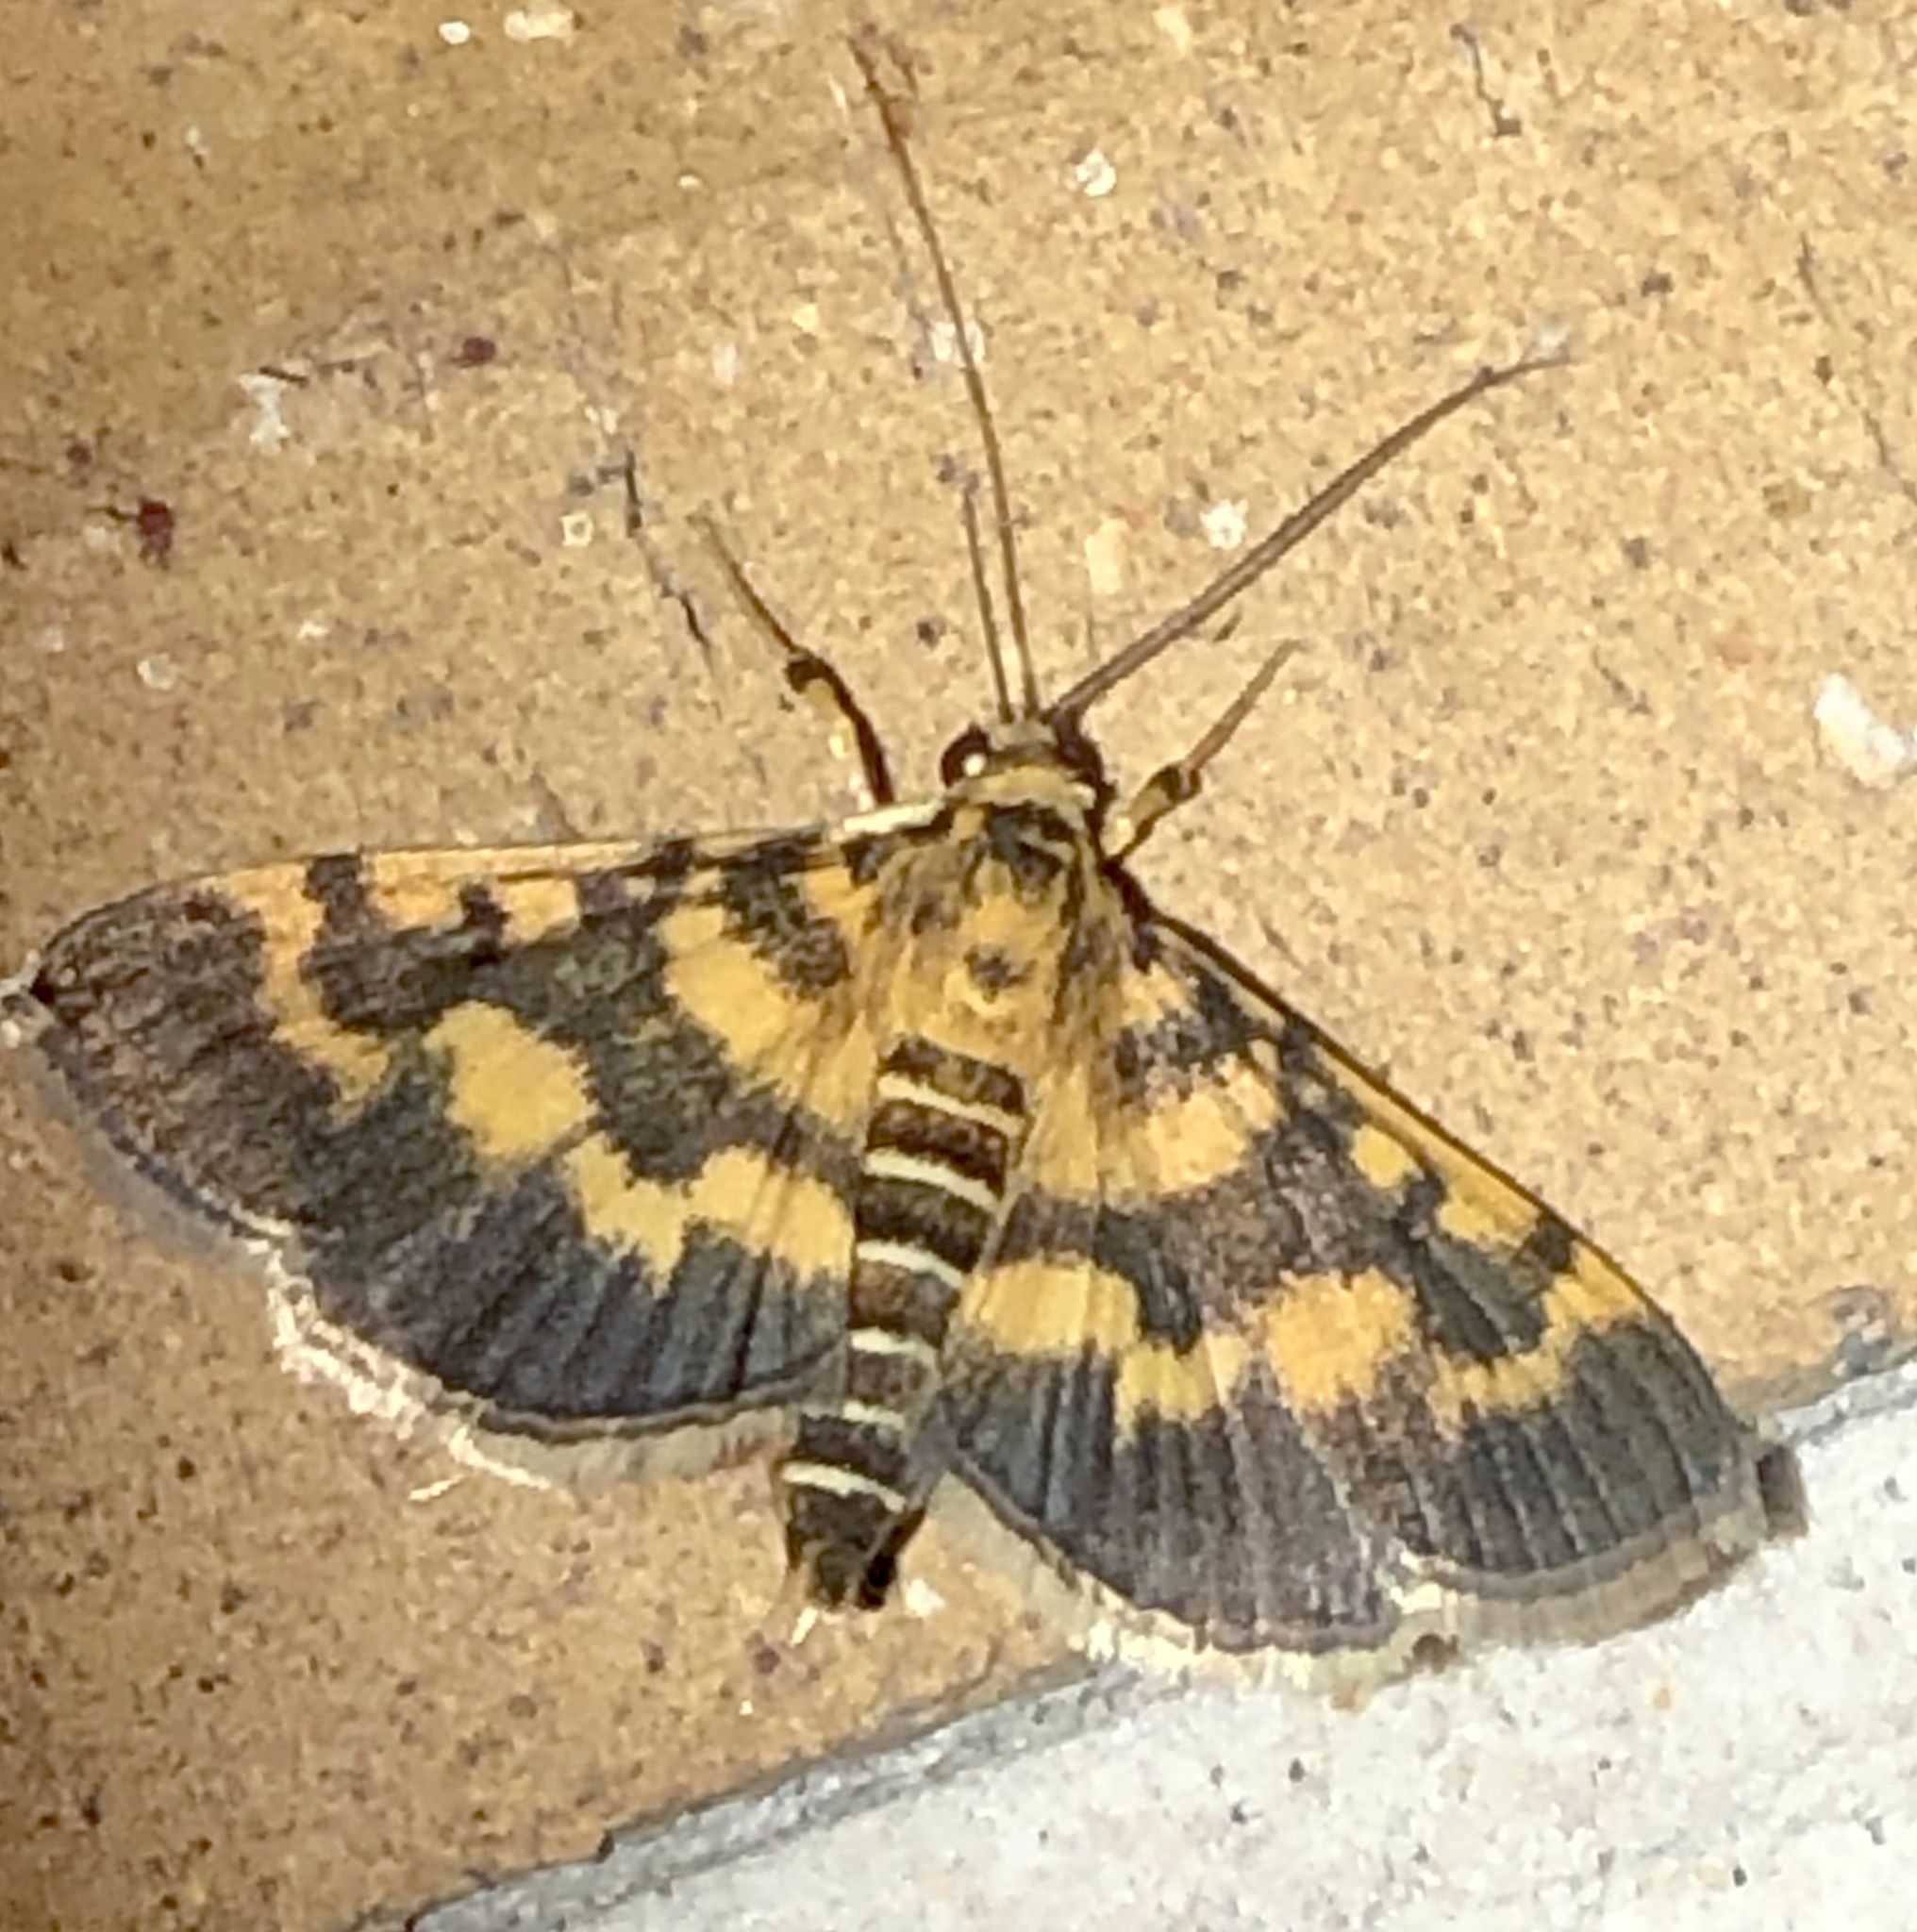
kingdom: Animalia
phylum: Arthropoda
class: Insecta
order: Lepidoptera
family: Crambidae
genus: Omiodes
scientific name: Omiodes diemenalis
